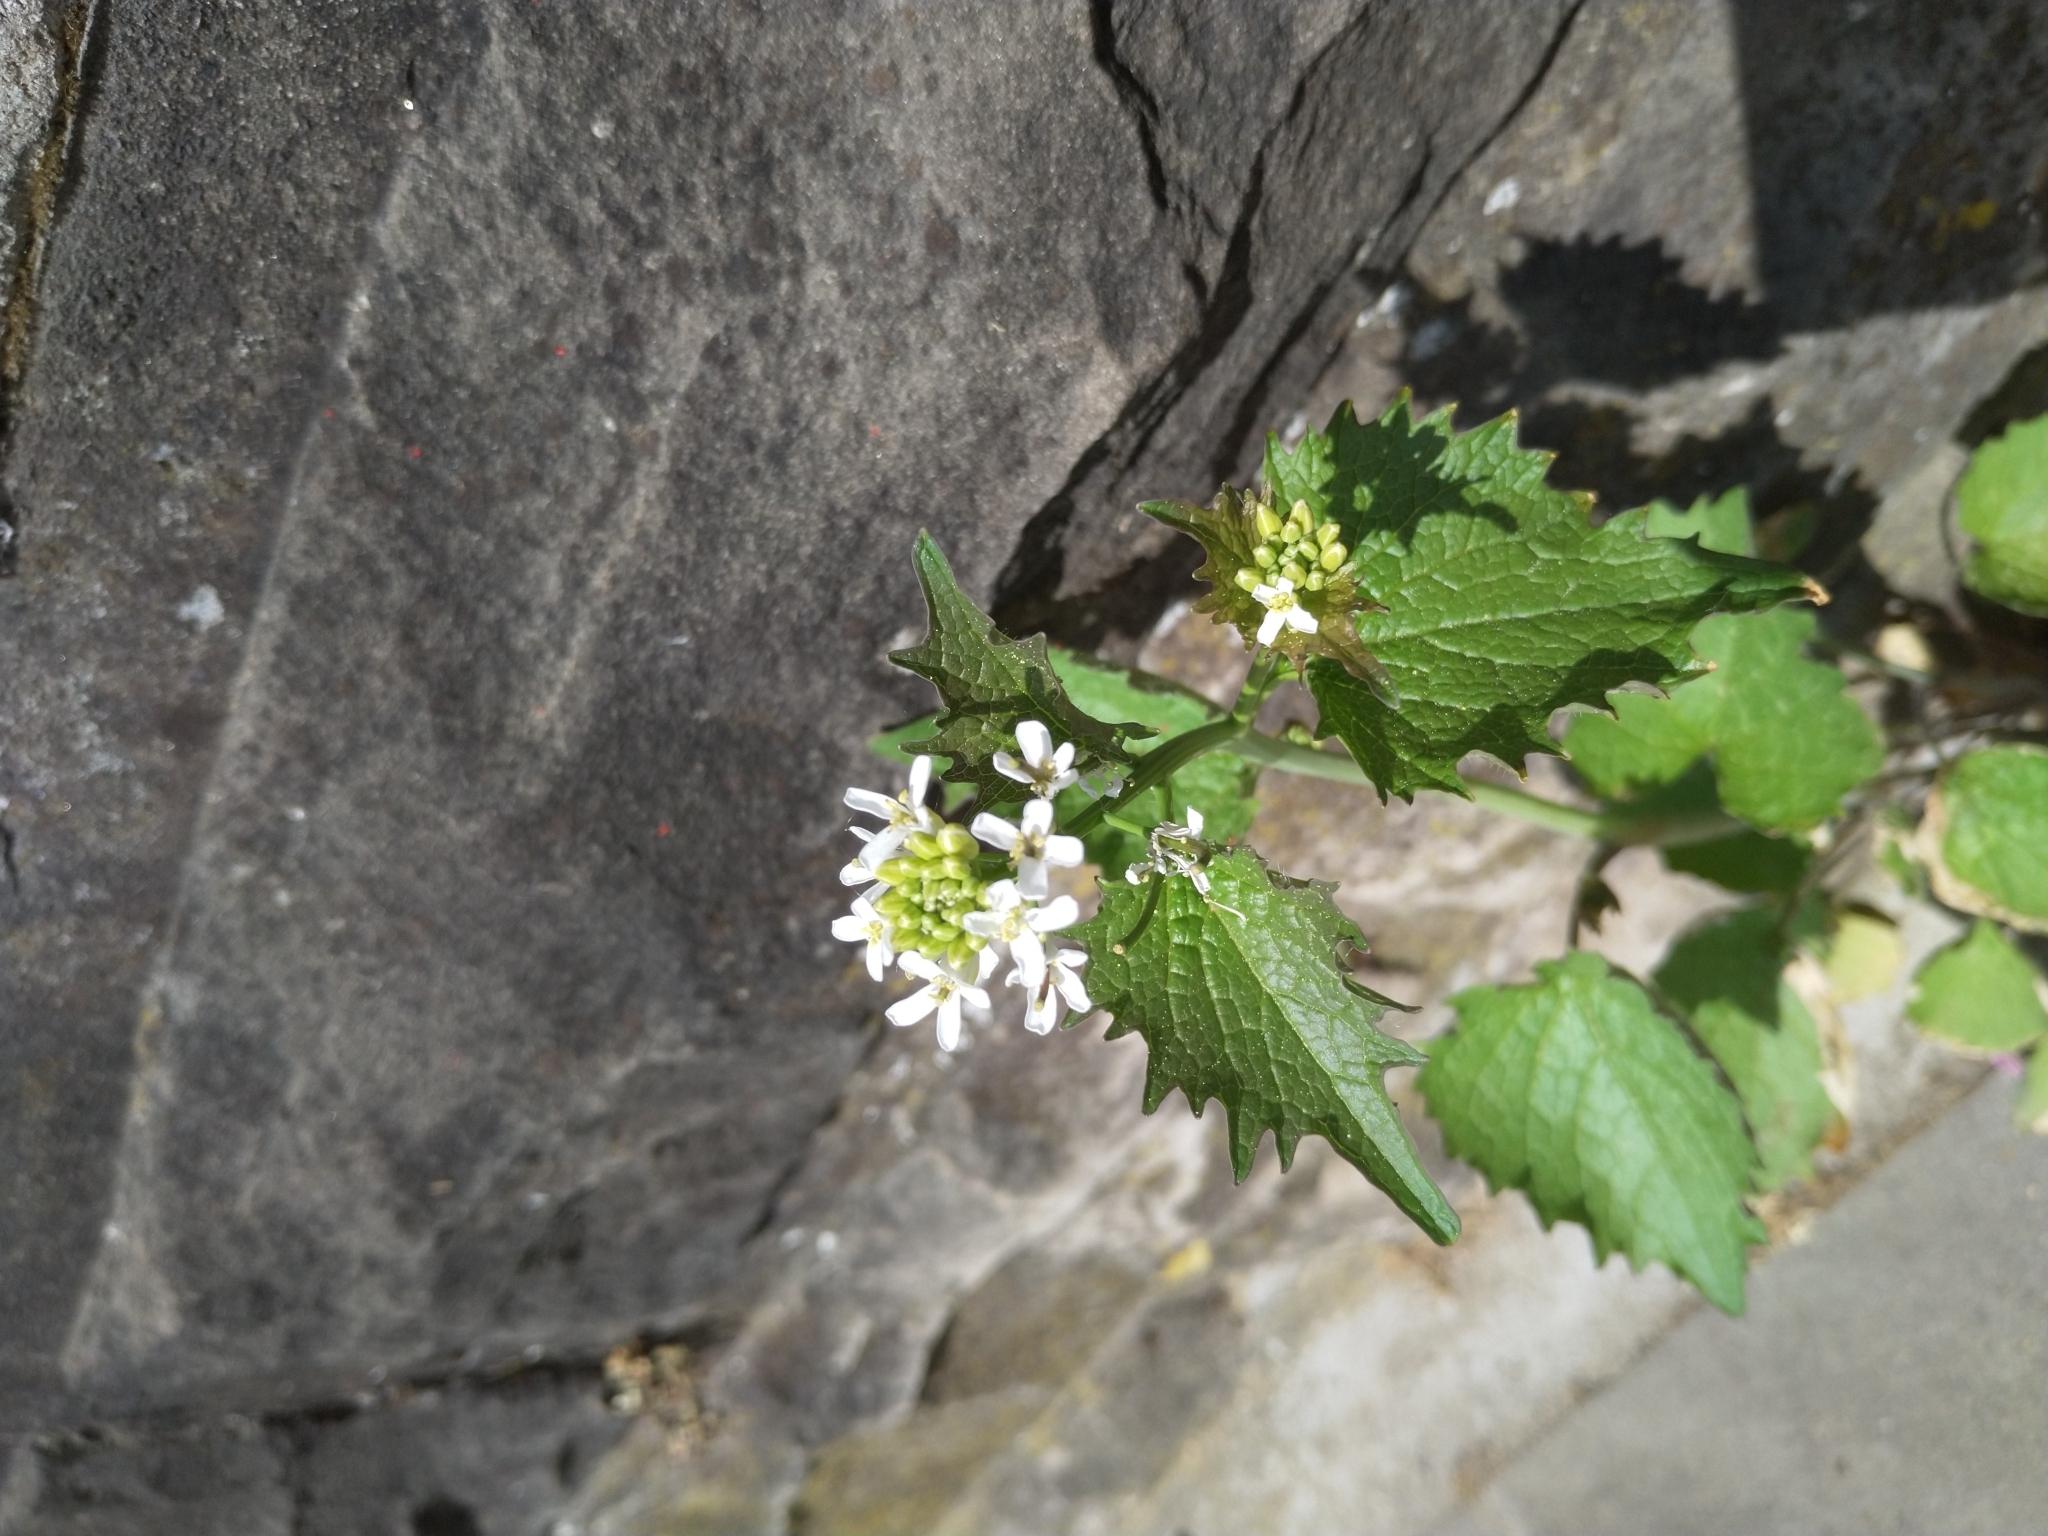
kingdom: Plantae
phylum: Tracheophyta
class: Magnoliopsida
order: Brassicales
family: Brassicaceae
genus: Alliaria
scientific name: Alliaria petiolata
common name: Garlic mustard
